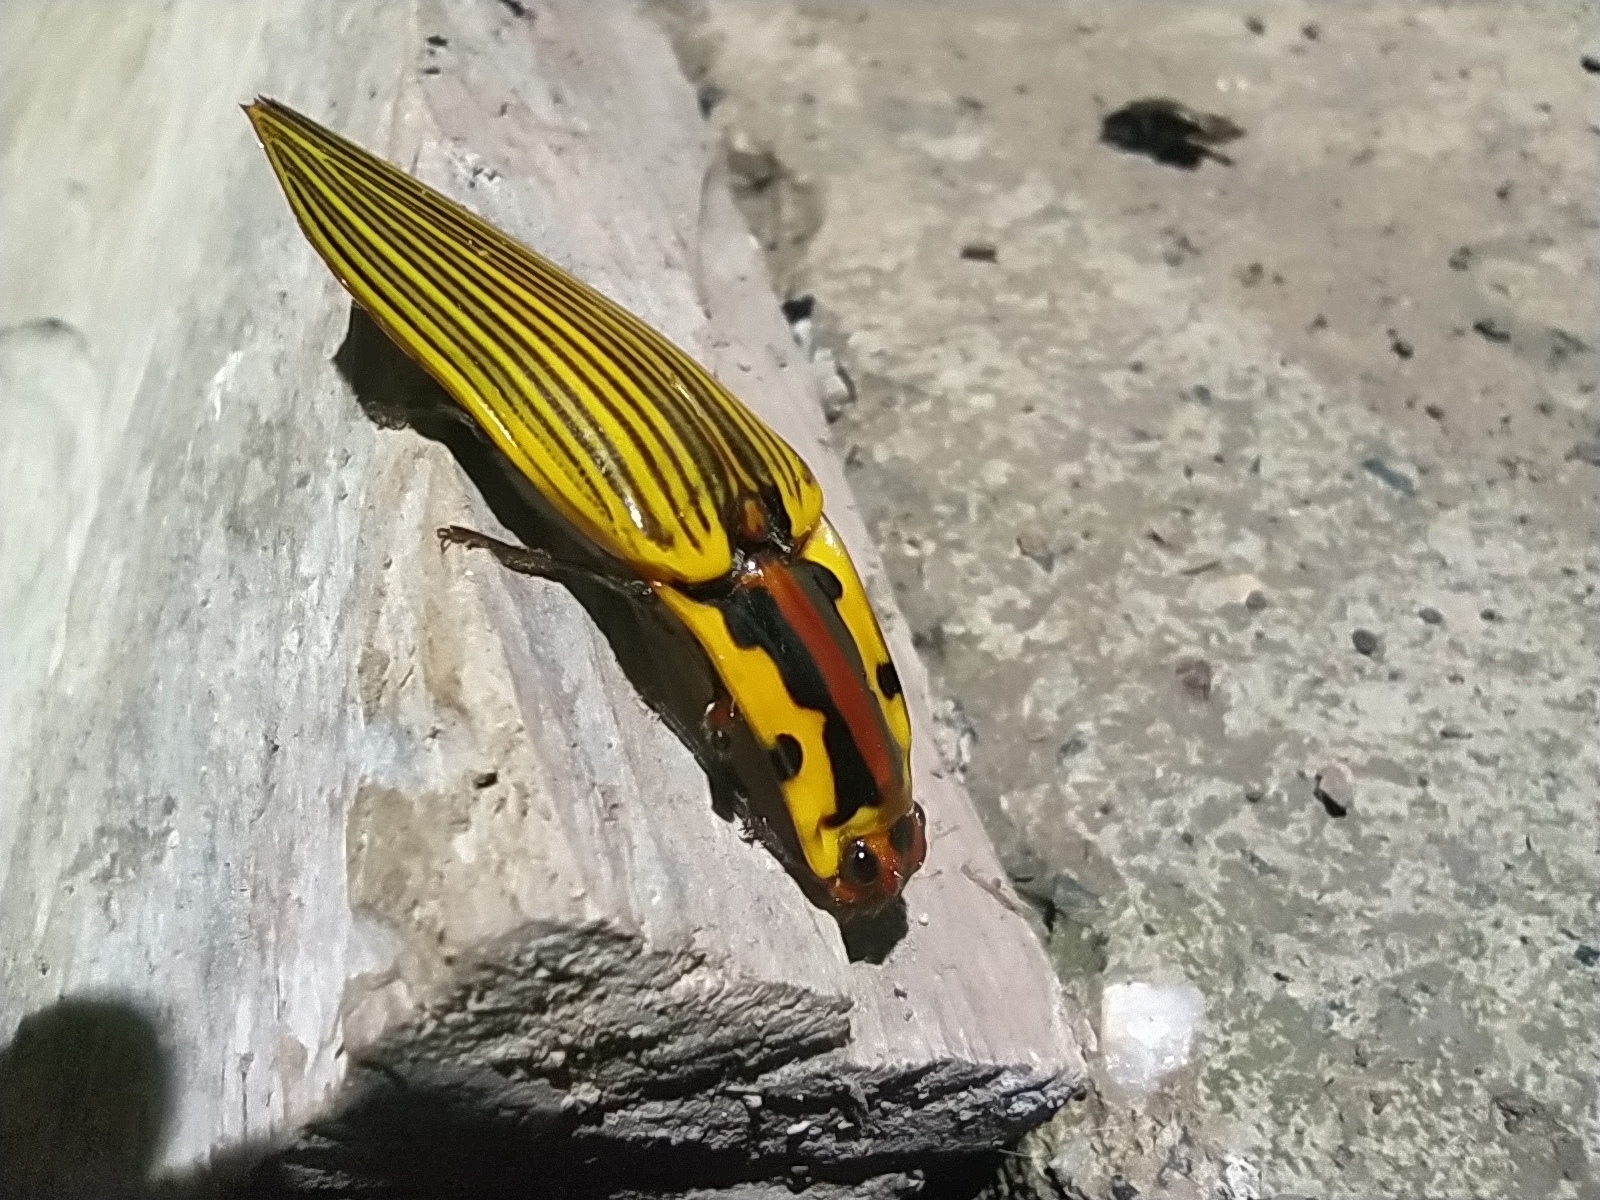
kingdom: Animalia
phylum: Arthropoda
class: Insecta
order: Coleoptera
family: Elateridae
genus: Semiotus
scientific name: Semiotus
